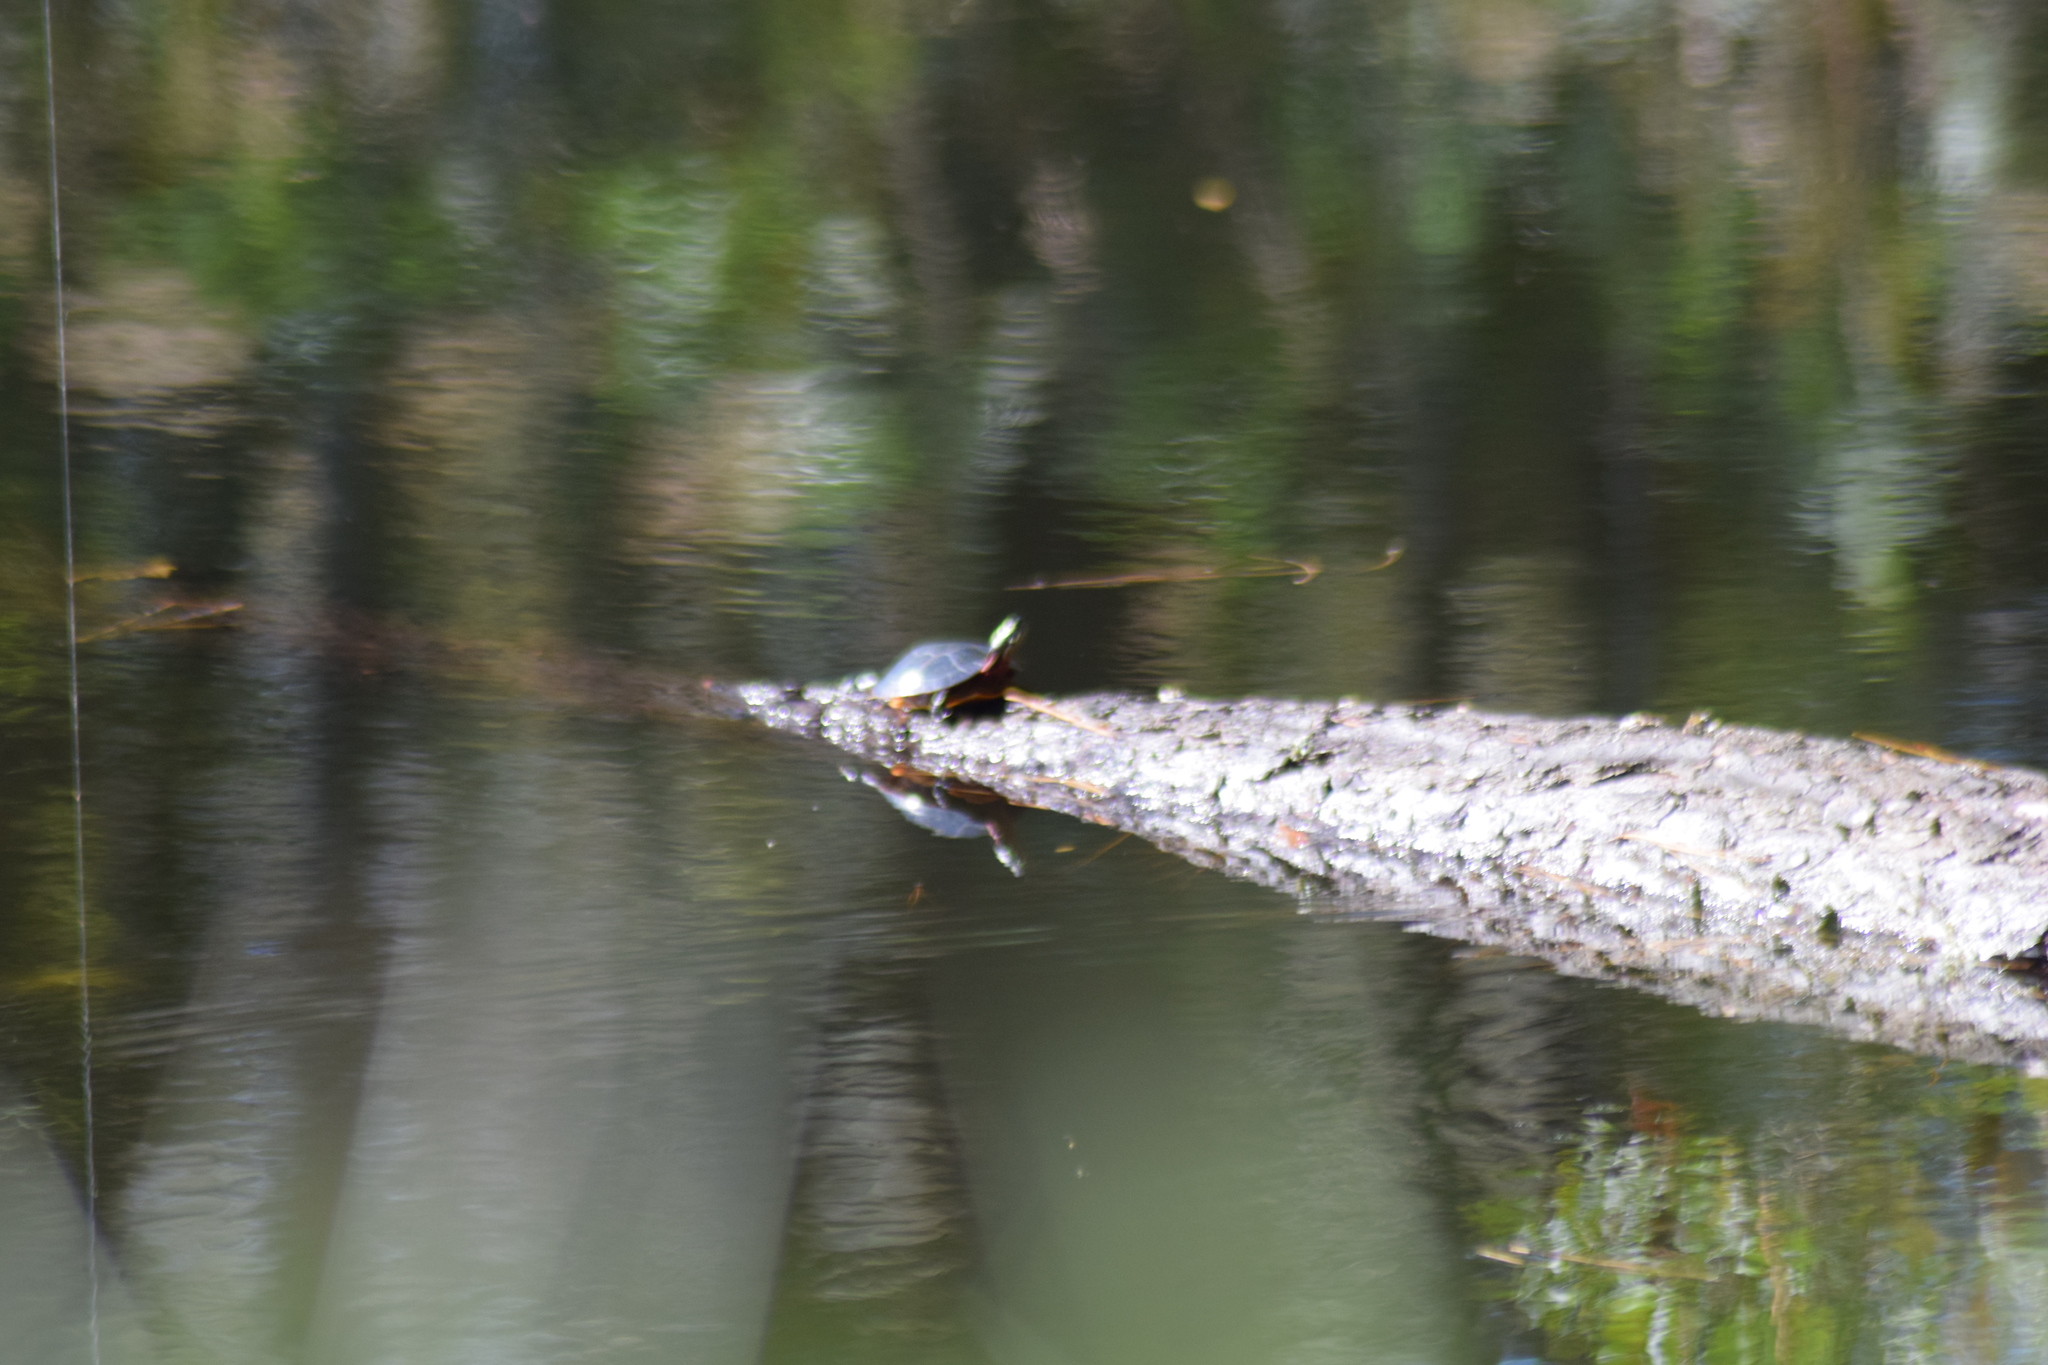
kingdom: Animalia
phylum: Chordata
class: Testudines
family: Emydidae
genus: Chrysemys
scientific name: Chrysemys picta
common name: Painted turtle
